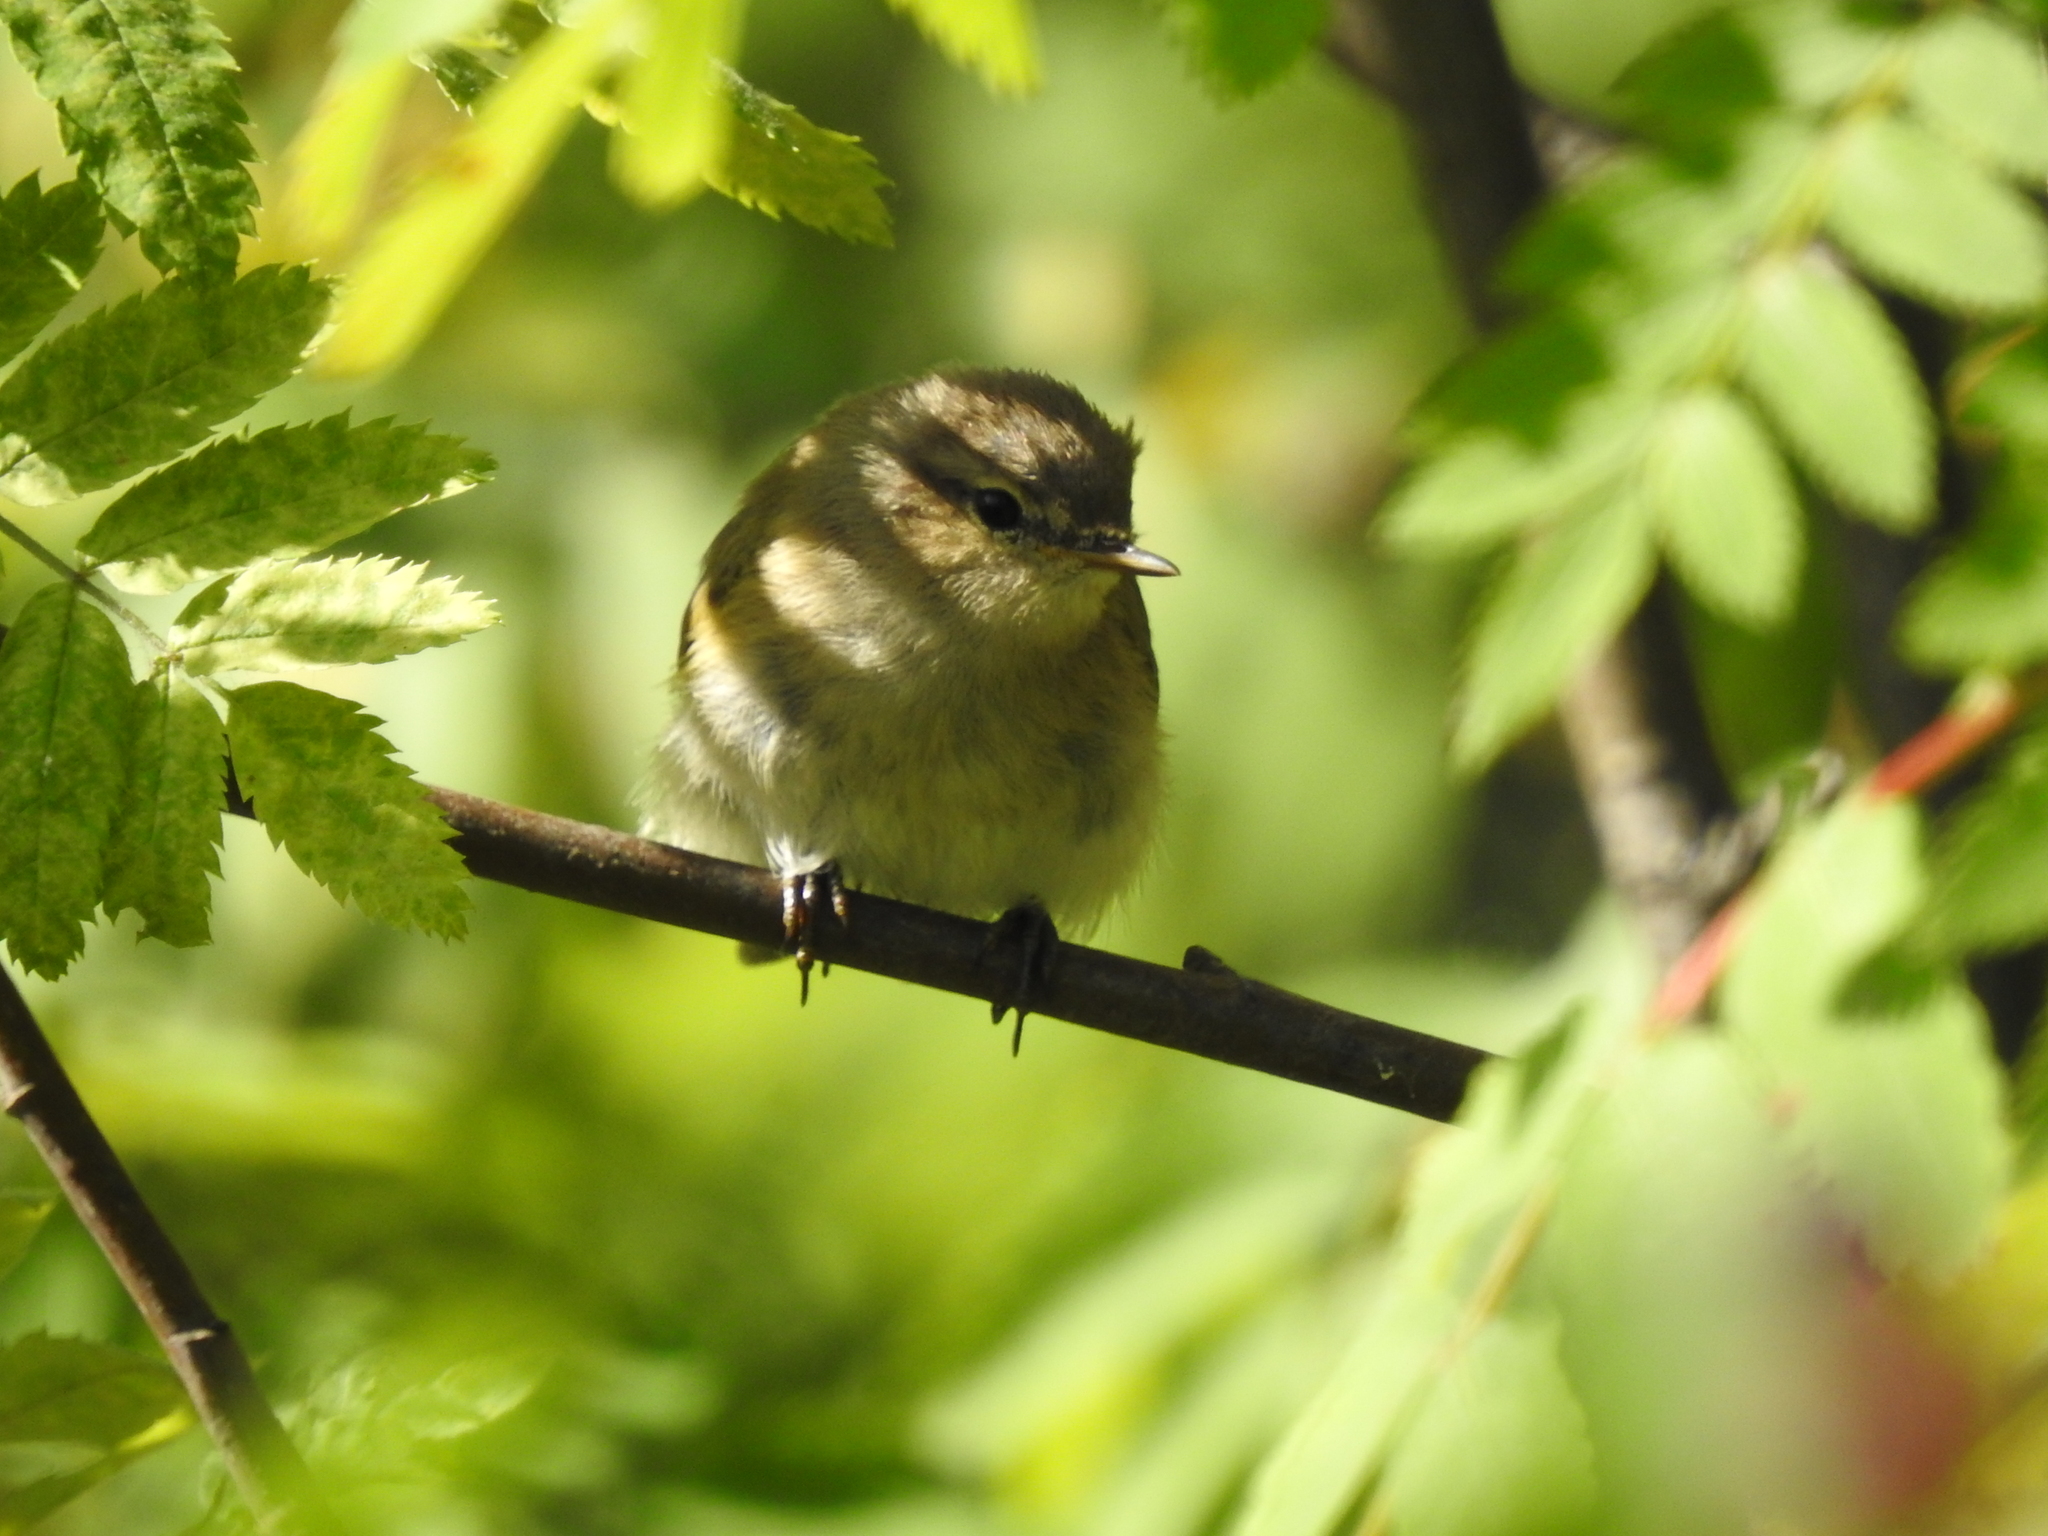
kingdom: Animalia
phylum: Chordata
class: Aves
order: Passeriformes
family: Phylloscopidae
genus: Phylloscopus
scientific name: Phylloscopus collybita
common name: Common chiffchaff
